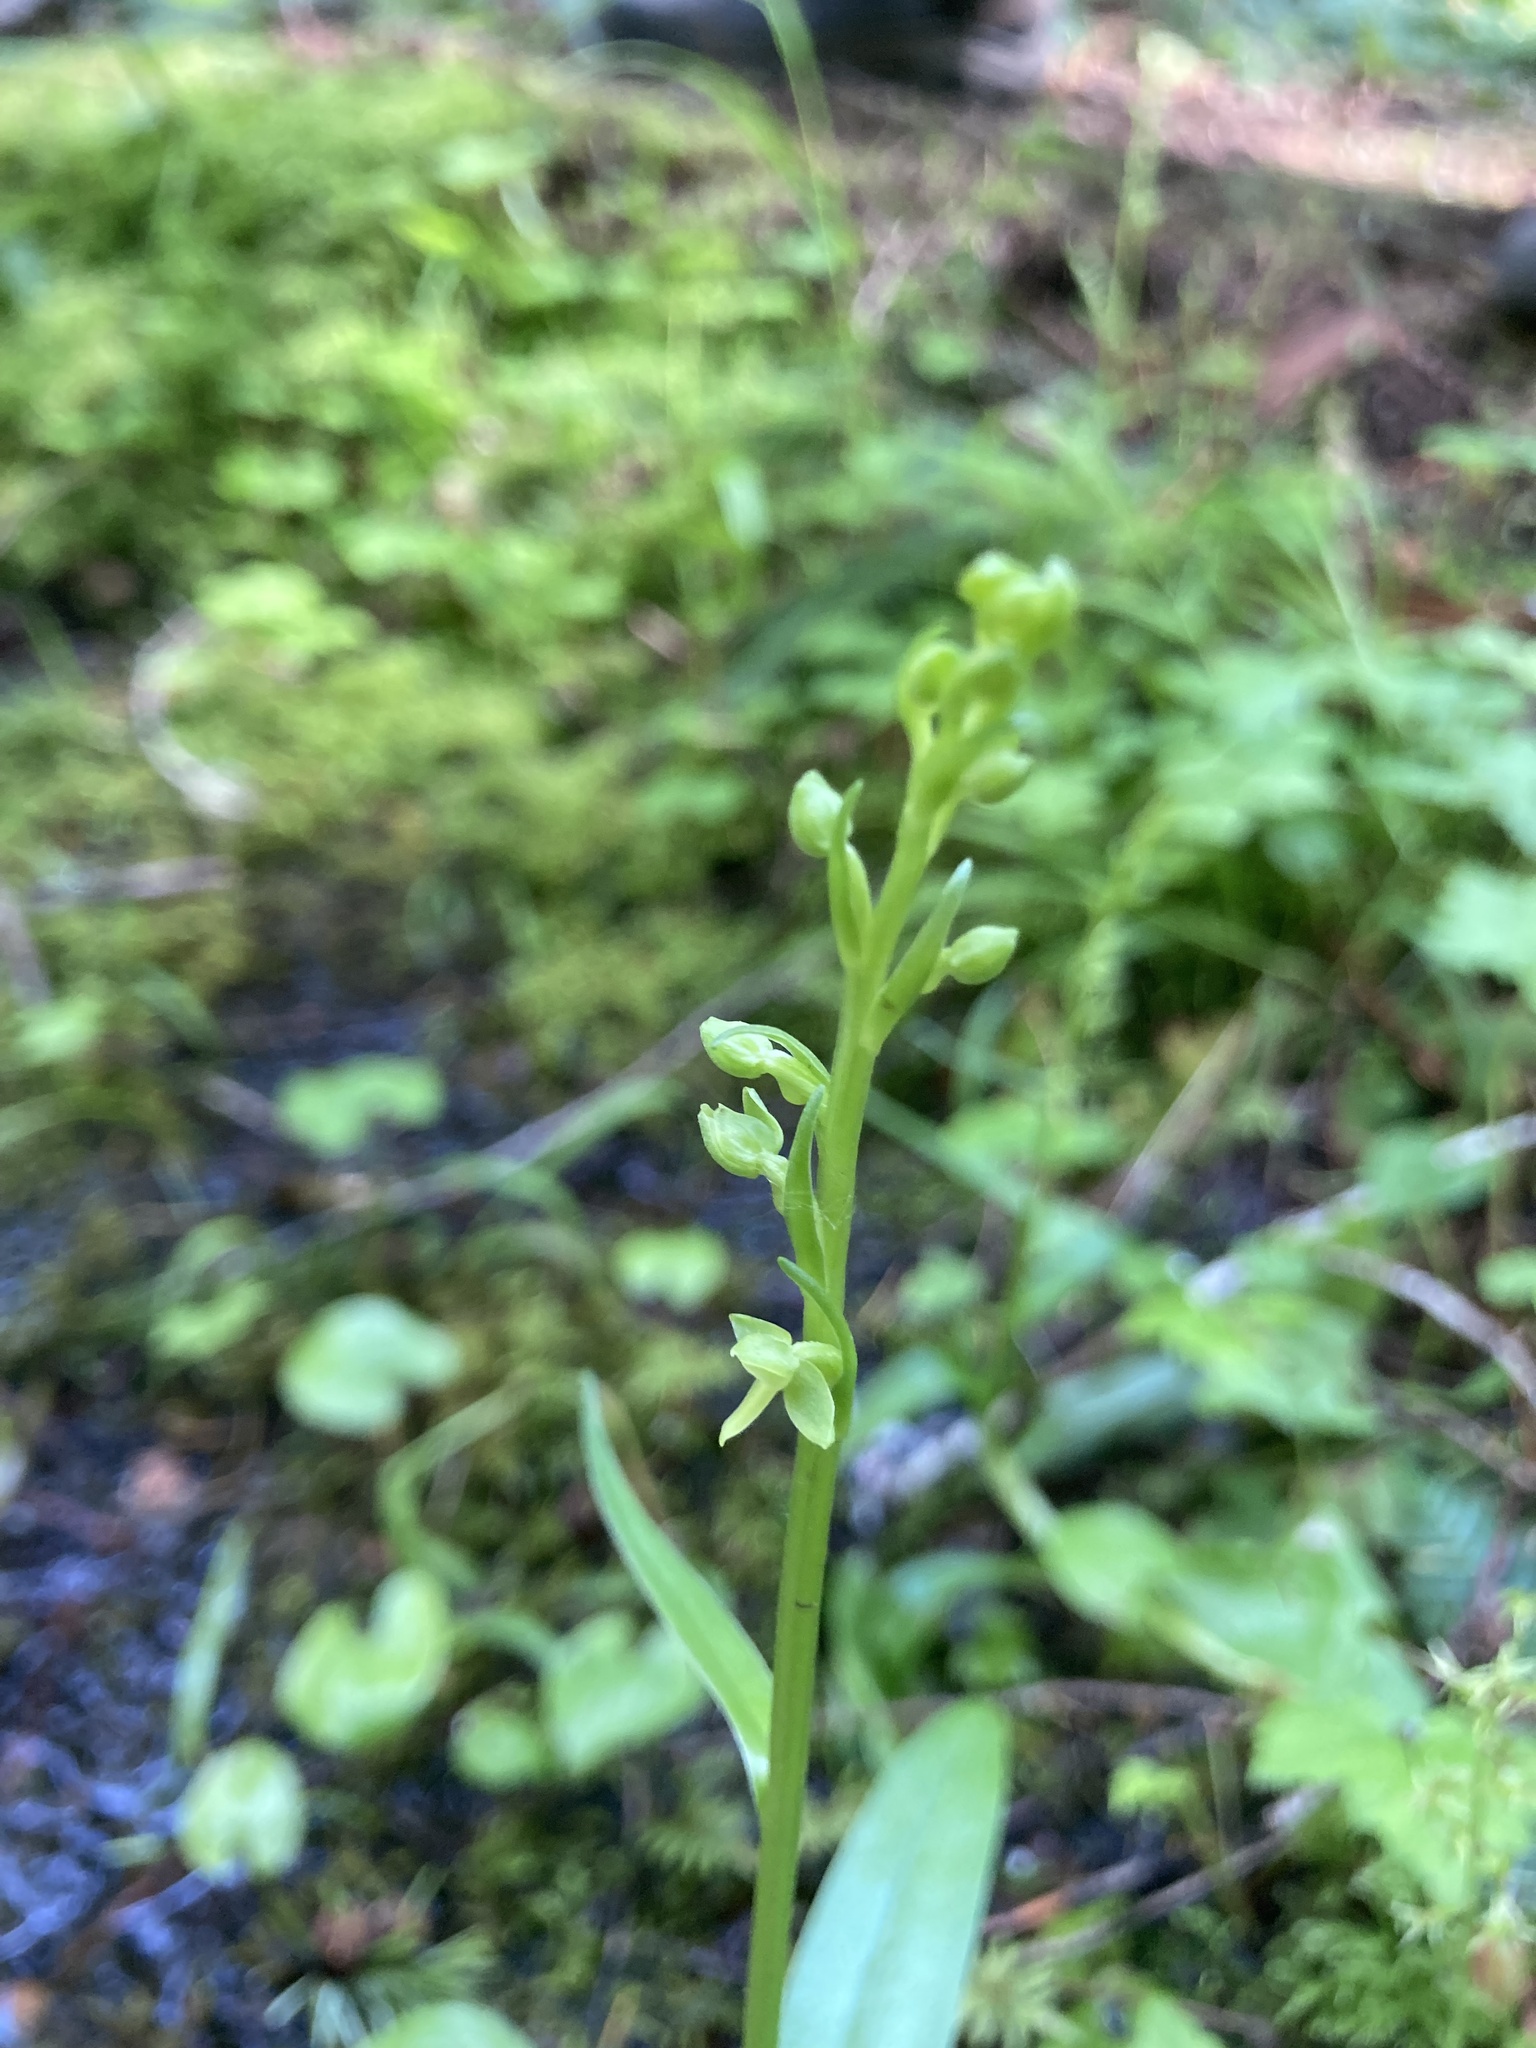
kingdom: Plantae
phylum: Tracheophyta
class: Liliopsida
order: Asparagales
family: Orchidaceae
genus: Platanthera
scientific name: Platanthera stricta
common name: Slender bog orchid
